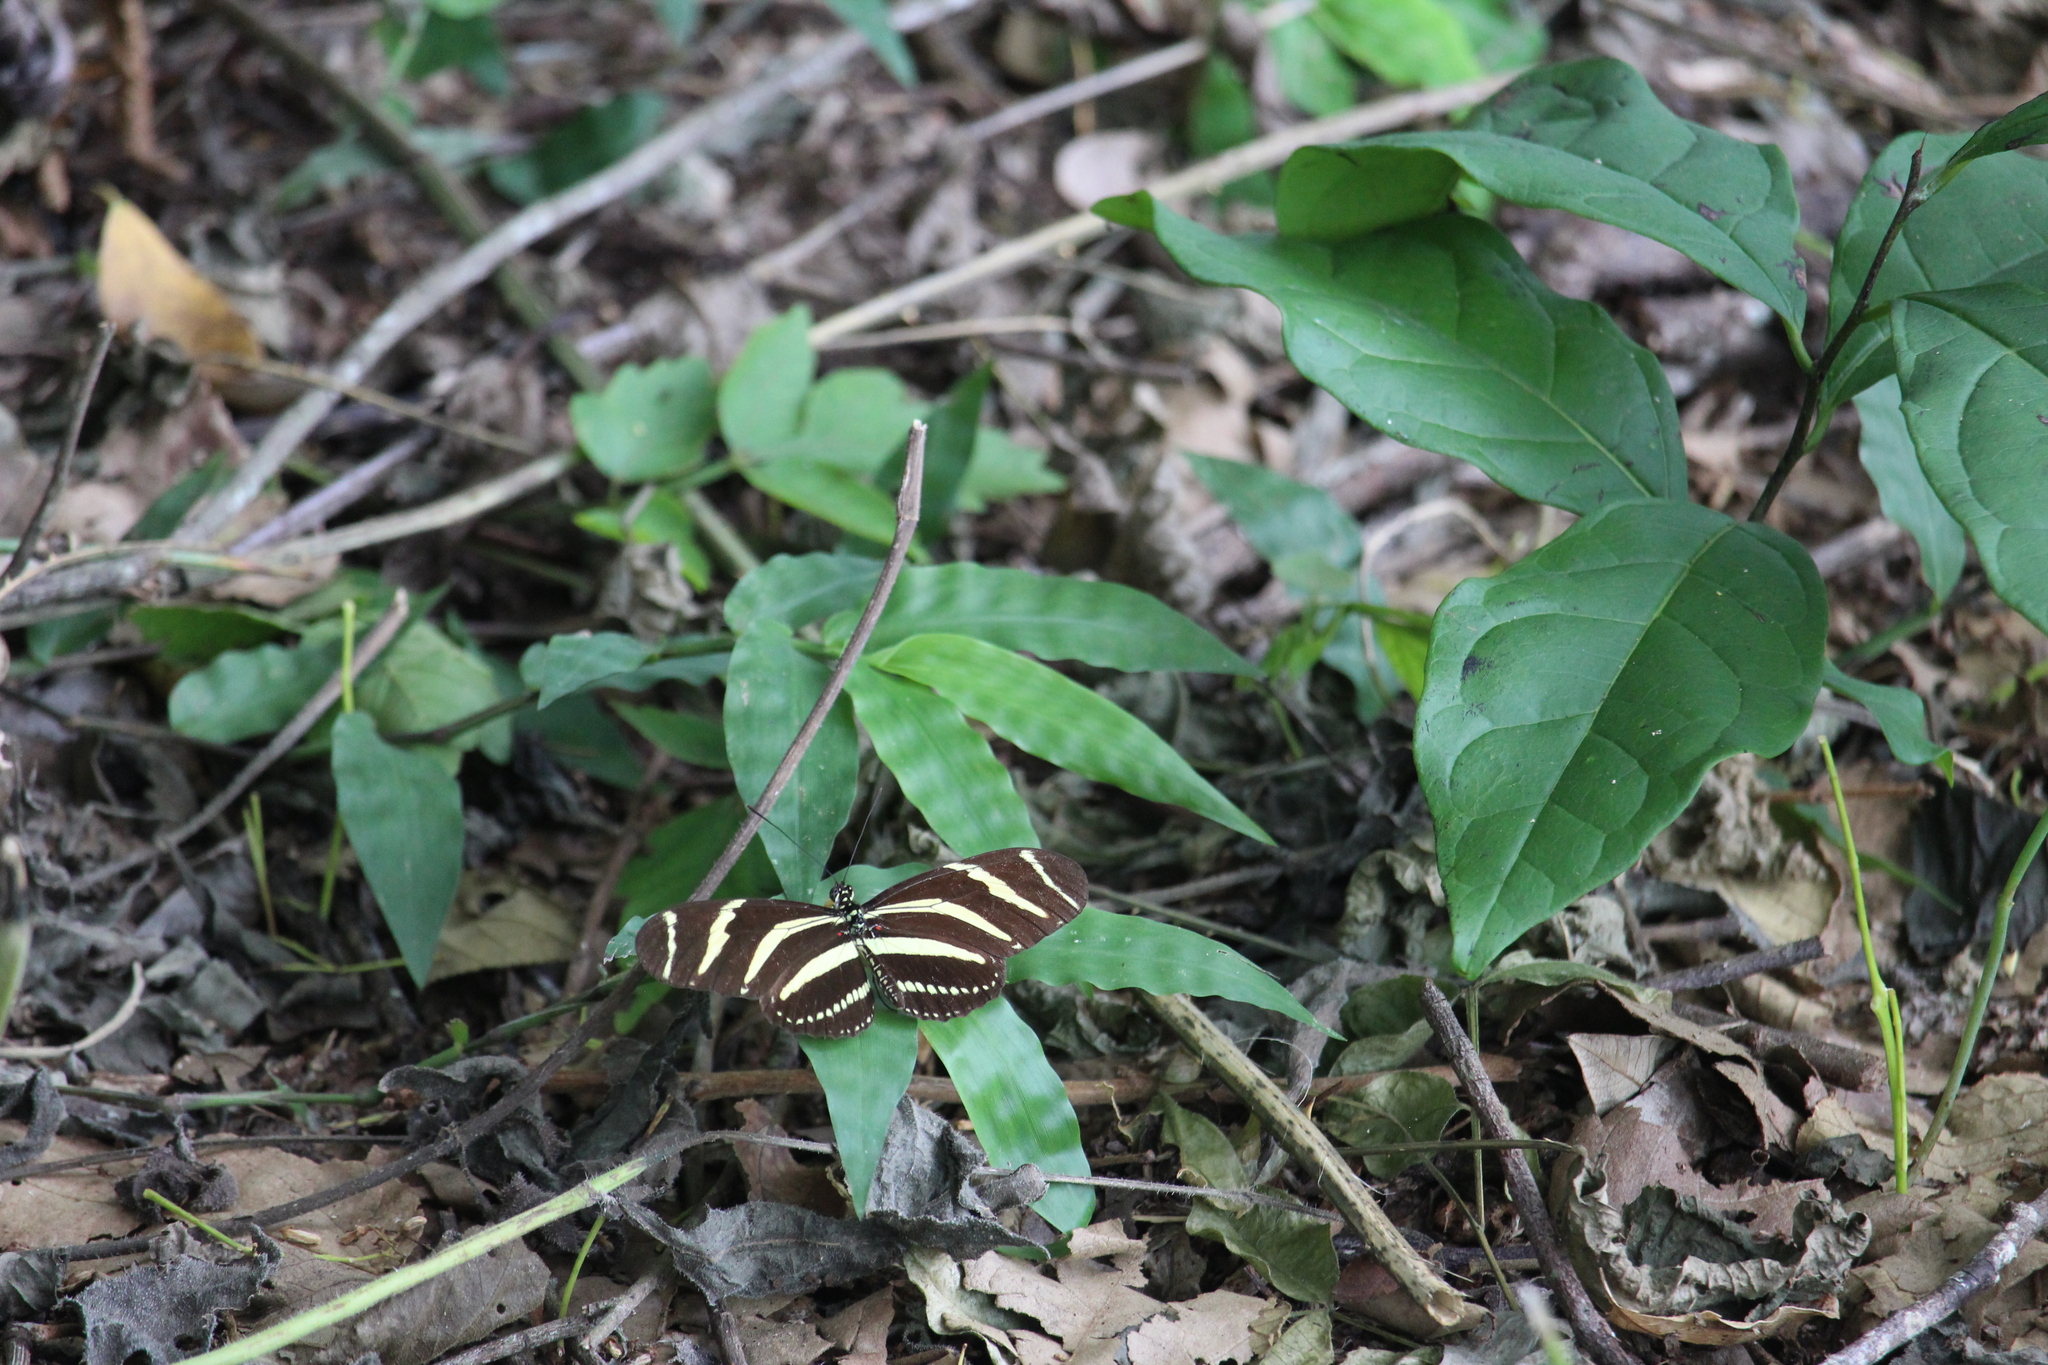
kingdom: Animalia
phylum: Arthropoda
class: Insecta
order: Lepidoptera
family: Nymphalidae
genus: Heliconius
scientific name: Heliconius charithonia
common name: Zebra long wing
